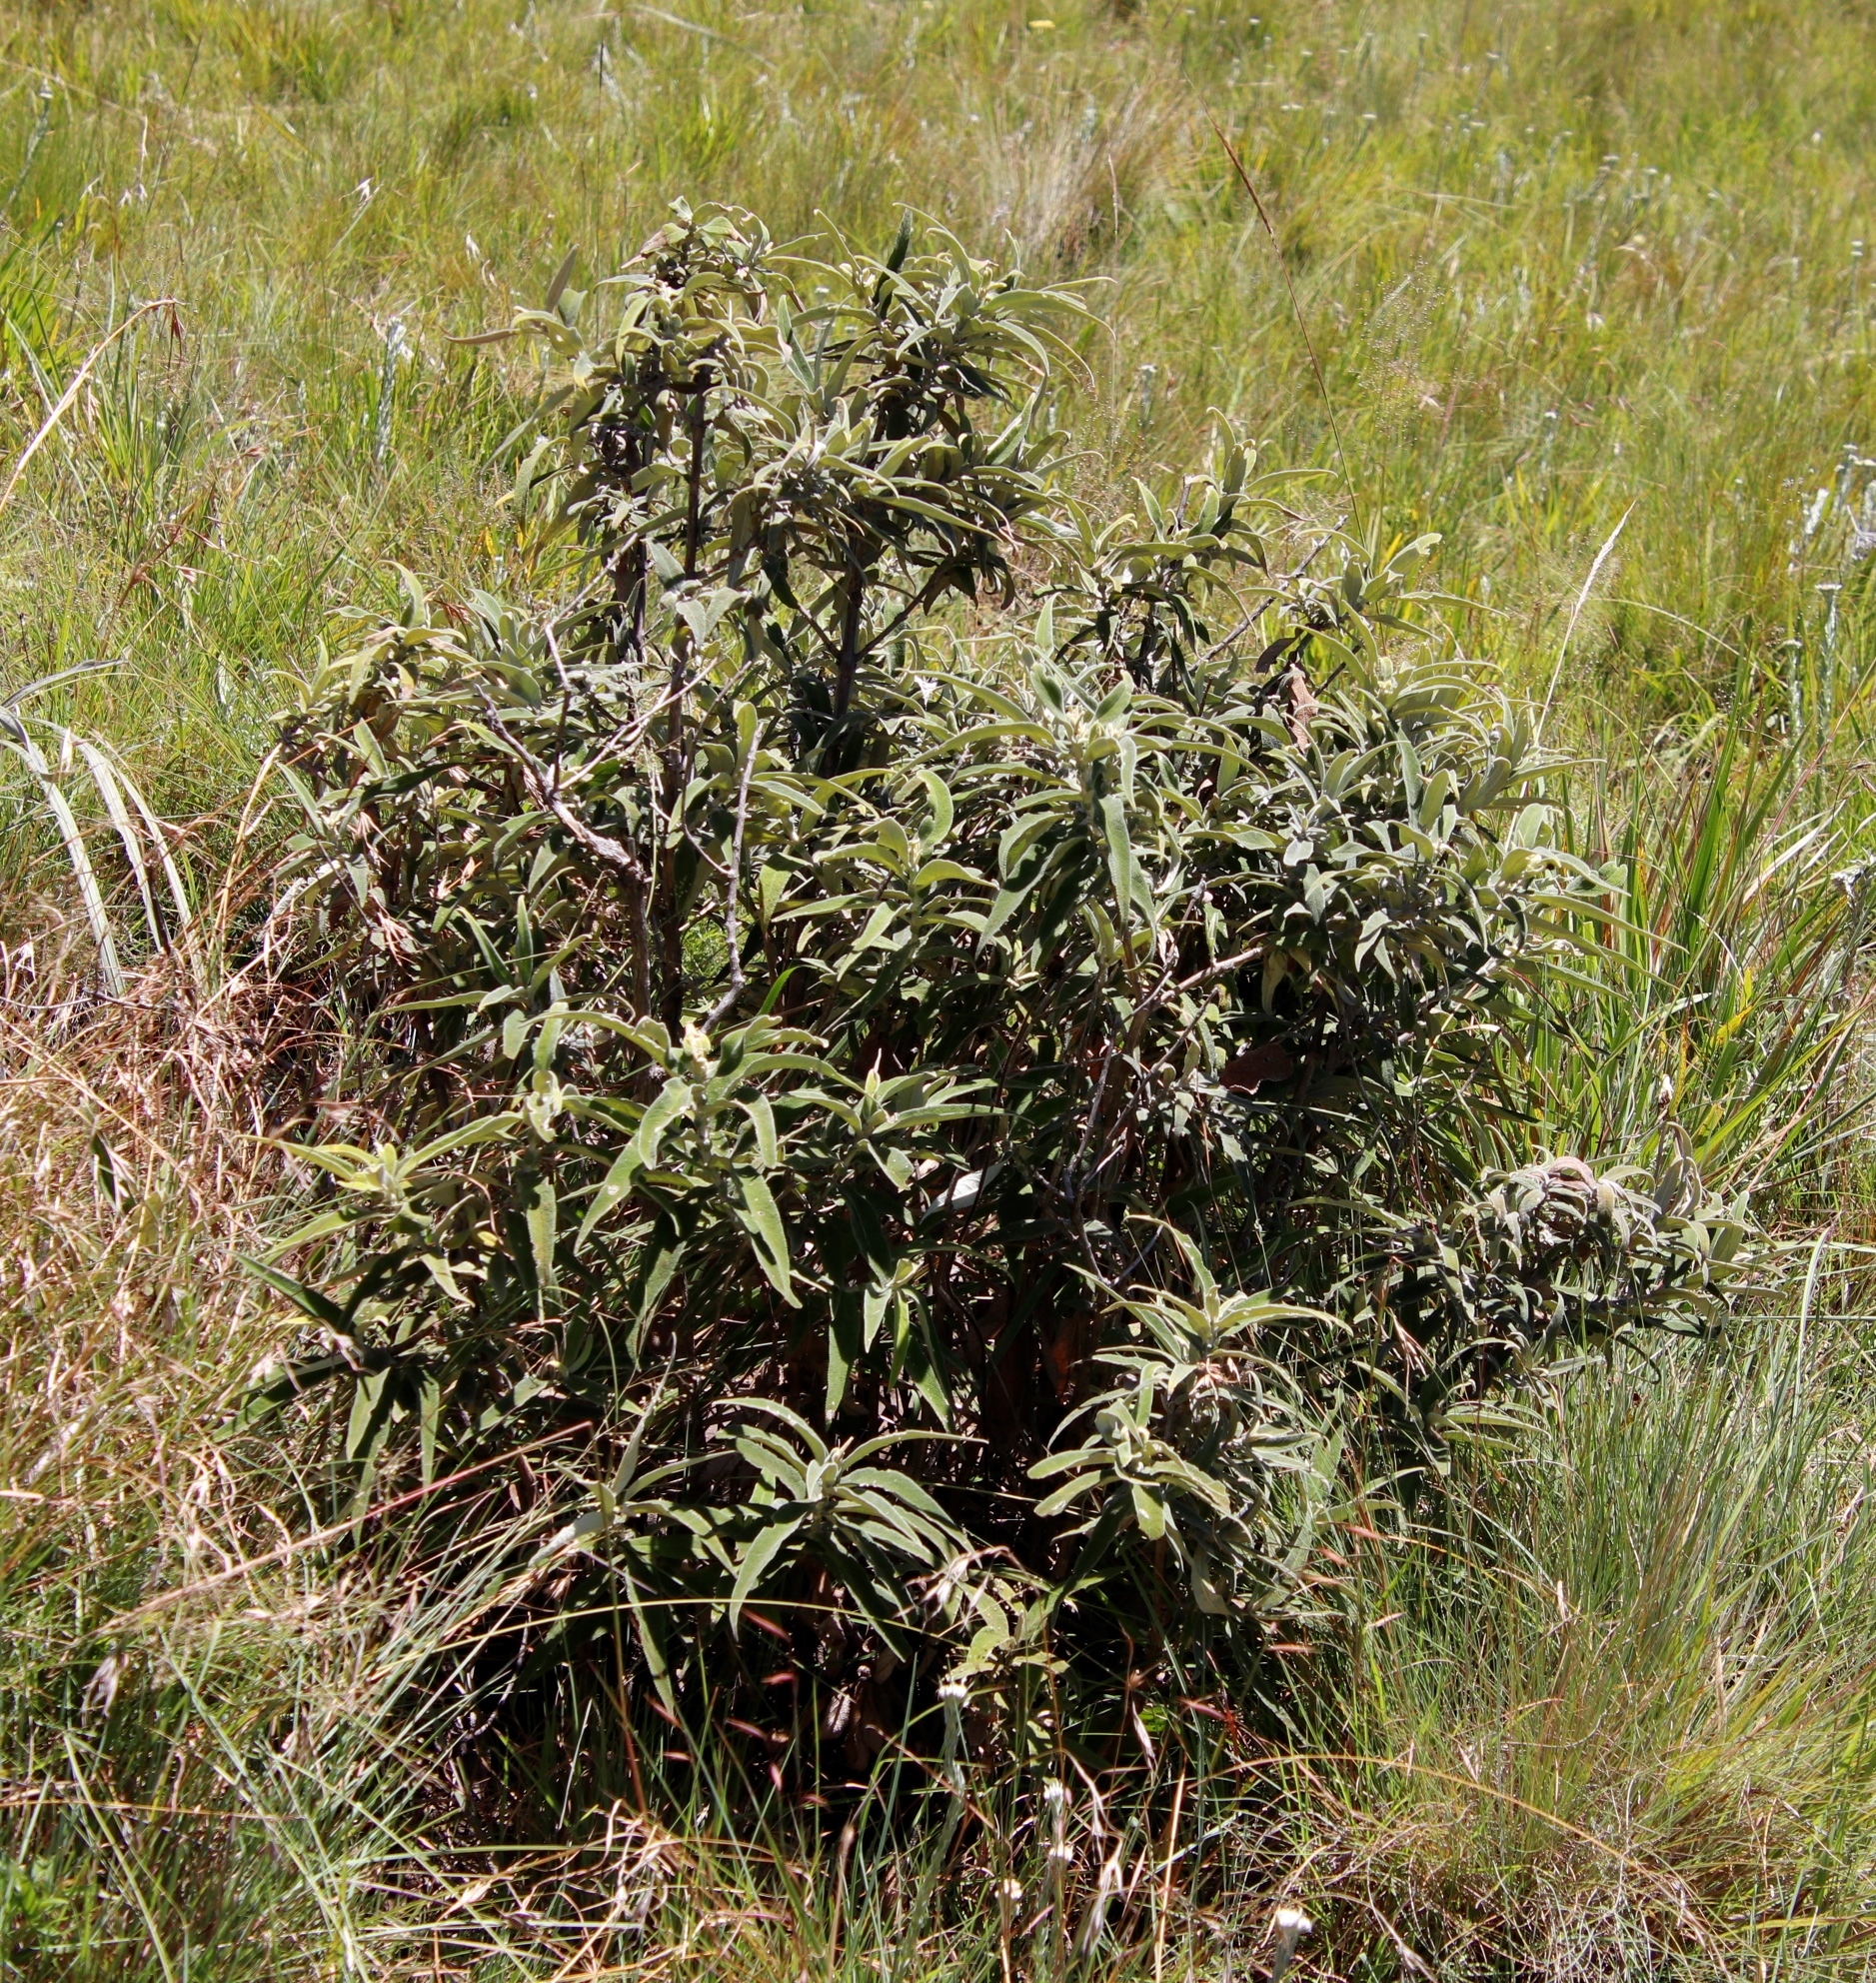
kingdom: Plantae
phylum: Tracheophyta
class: Magnoliopsida
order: Lamiales
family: Scrophulariaceae
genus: Buddleja
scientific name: Buddleja salviifolia
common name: Sagewood
